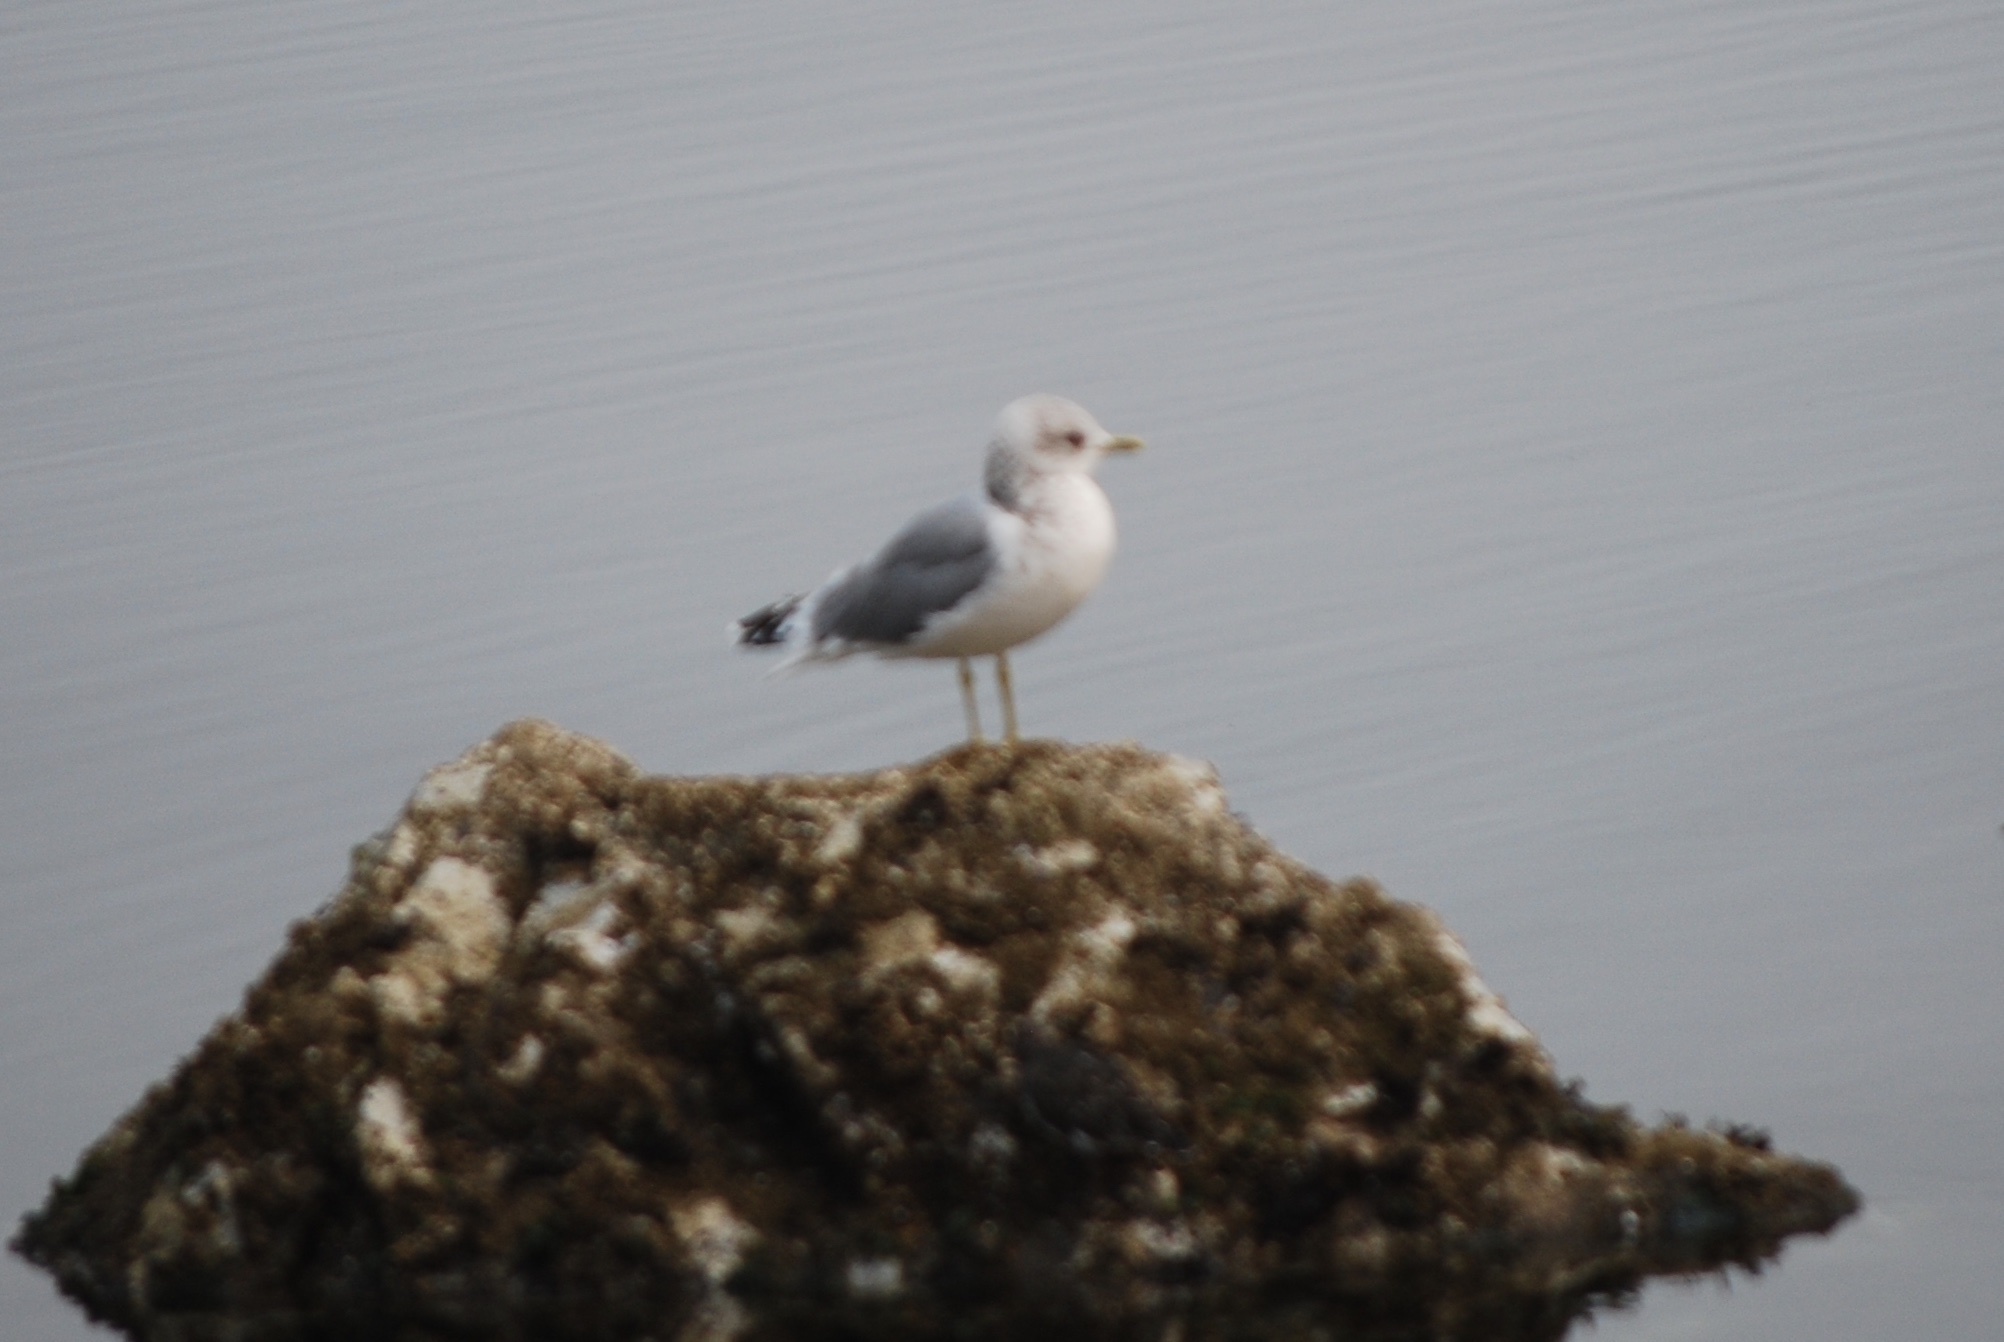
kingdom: Animalia
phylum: Chordata
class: Aves
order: Charadriiformes
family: Laridae
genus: Larus
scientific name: Larus brachyrhynchus
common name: Short-billed gull
